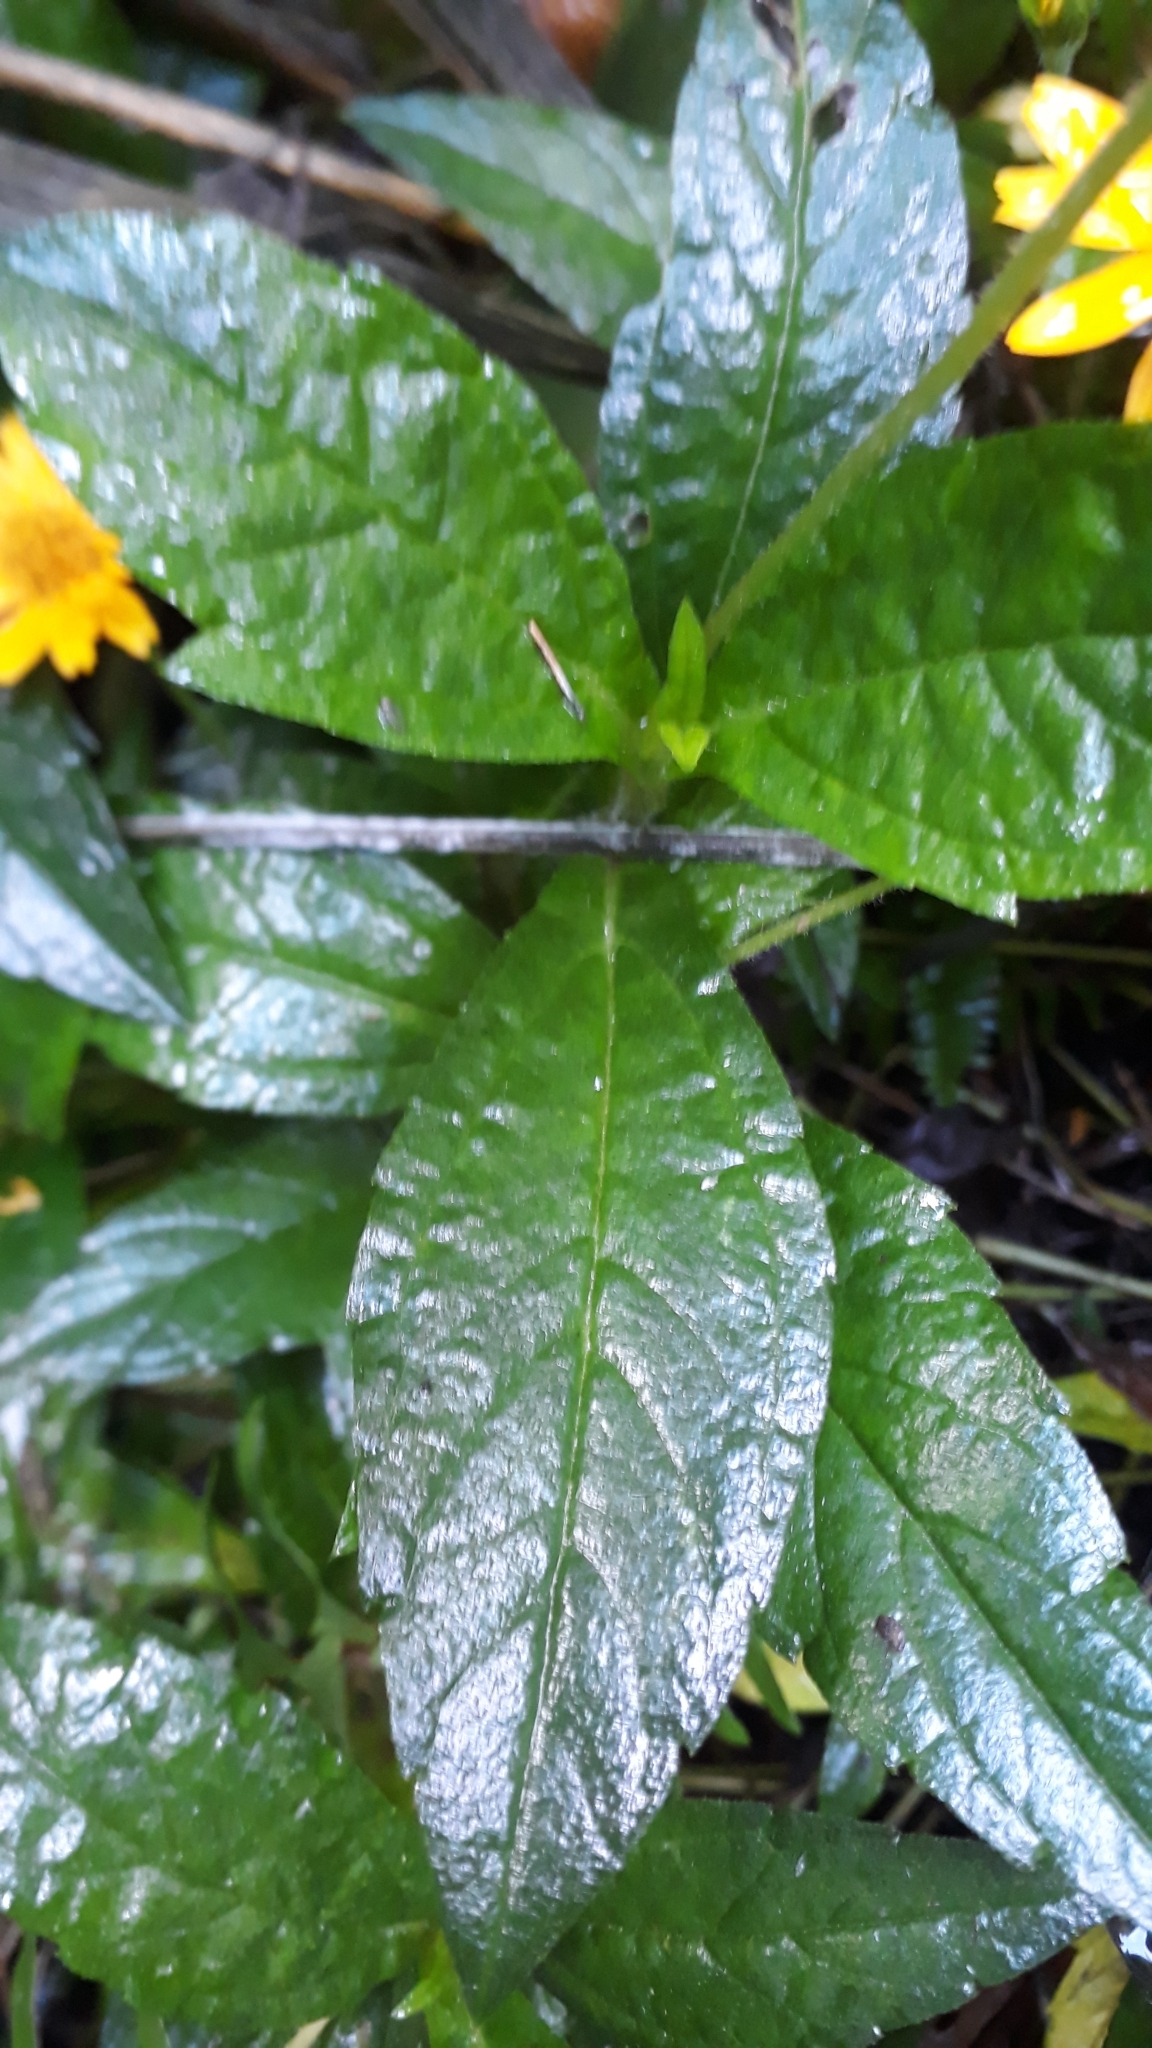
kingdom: Plantae
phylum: Tracheophyta
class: Magnoliopsida
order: Asterales
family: Asteraceae
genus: Sphagneticola
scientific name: Sphagneticola trilobata
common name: Bay biscayne creeping-oxeye
